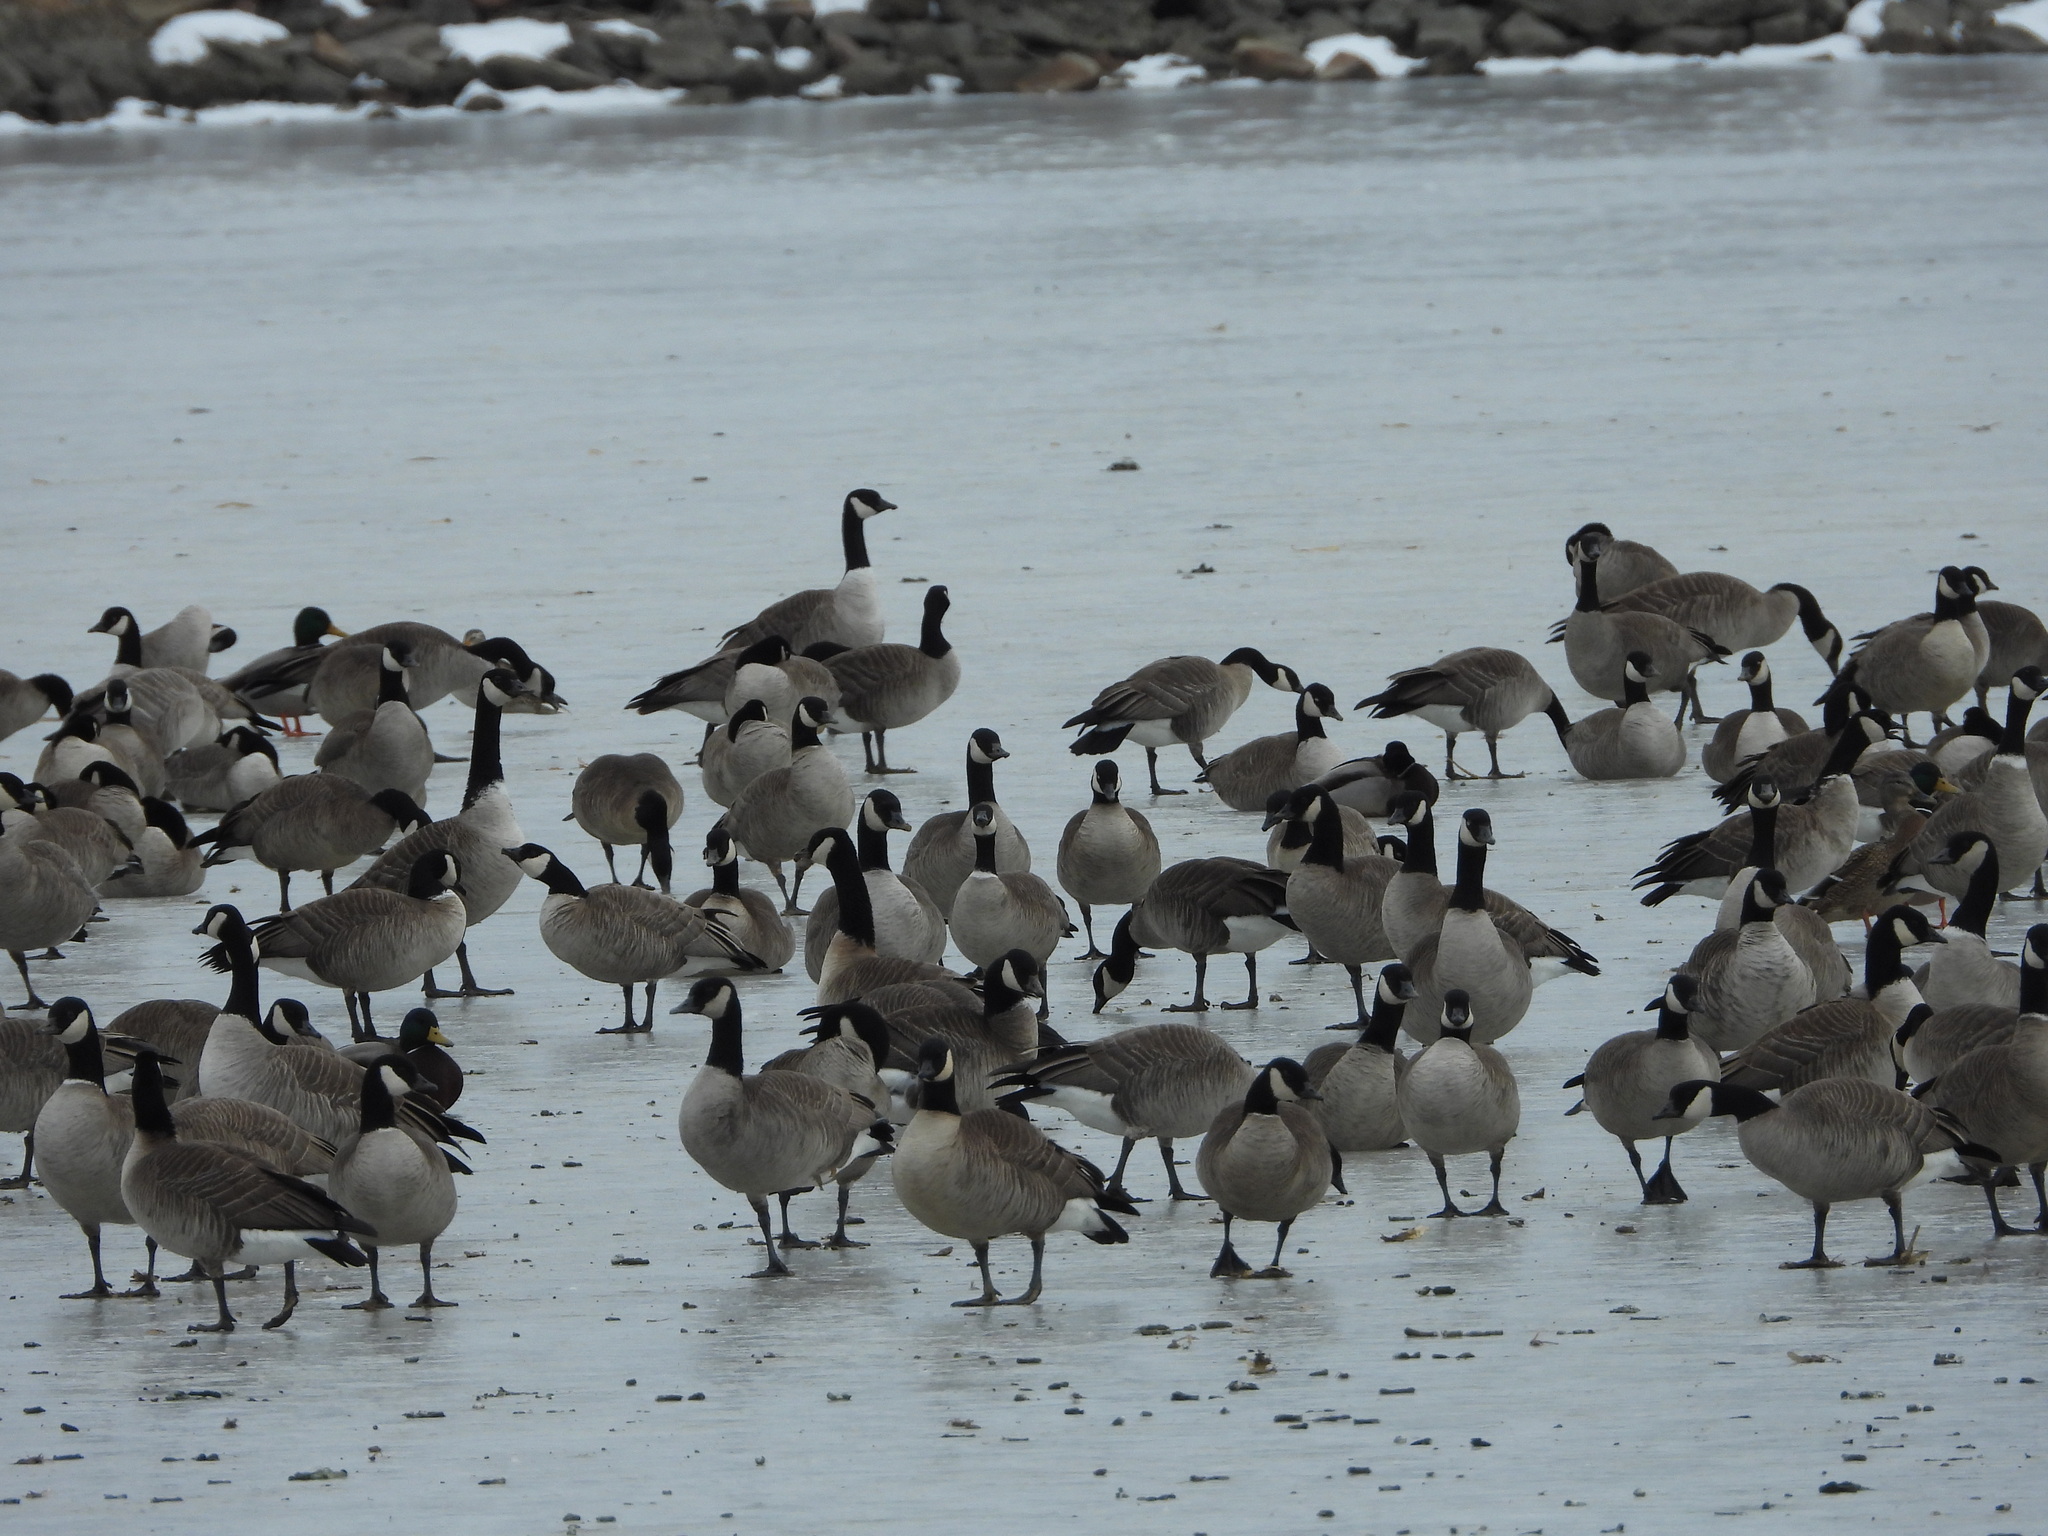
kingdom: Animalia
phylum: Chordata
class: Aves
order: Anseriformes
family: Anatidae
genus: Branta
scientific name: Branta canadensis
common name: Canada goose
